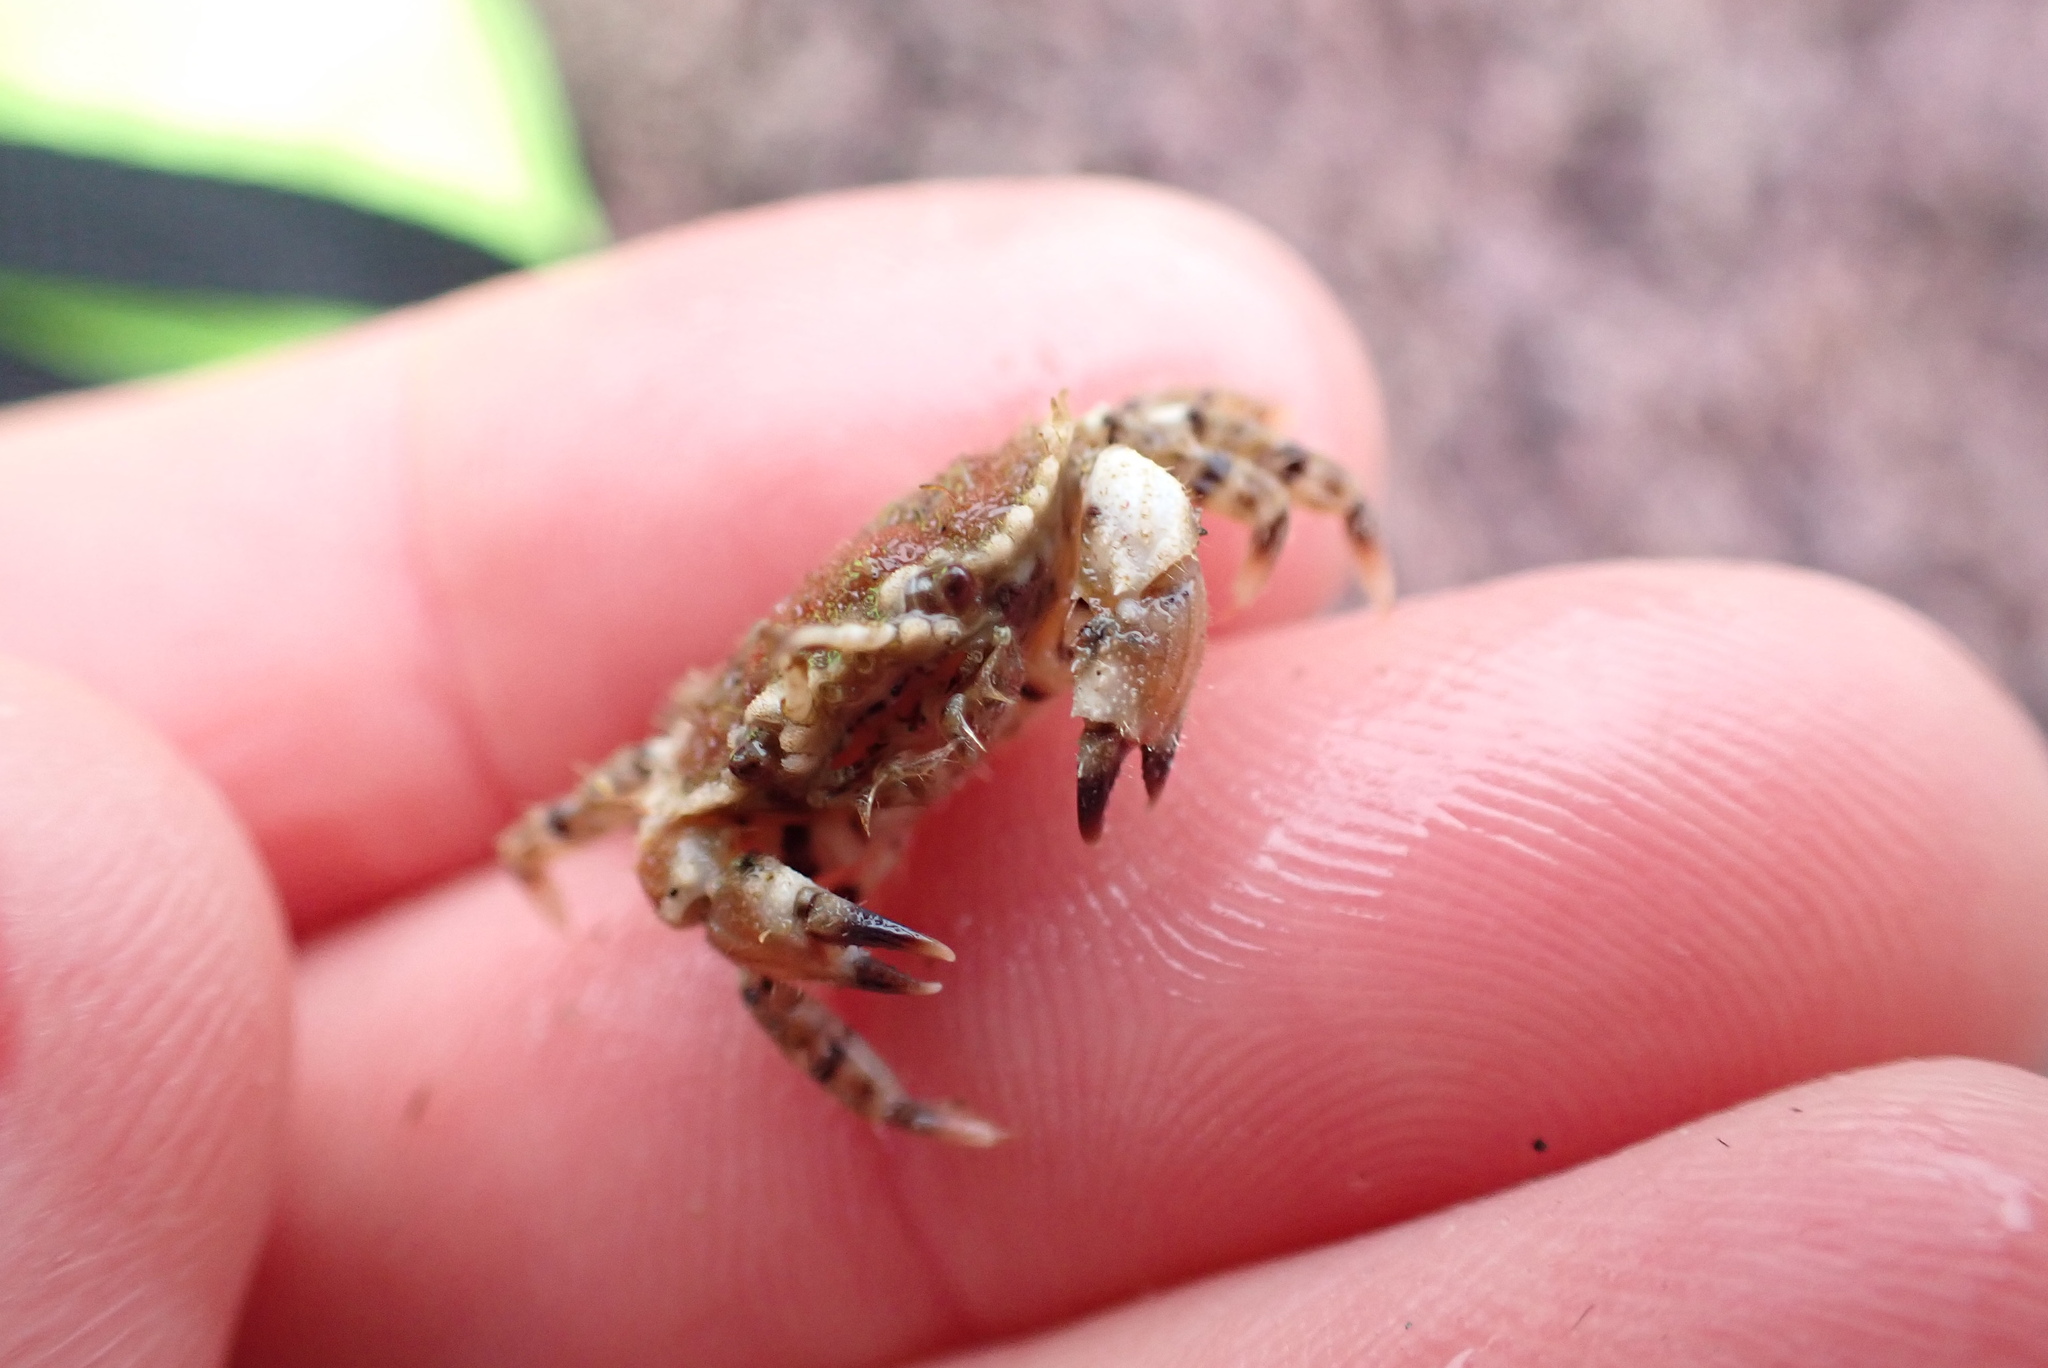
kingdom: Animalia
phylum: Arthropoda
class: Malacostraca
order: Decapoda
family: Cancridae
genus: Romaleon
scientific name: Romaleon jordani
